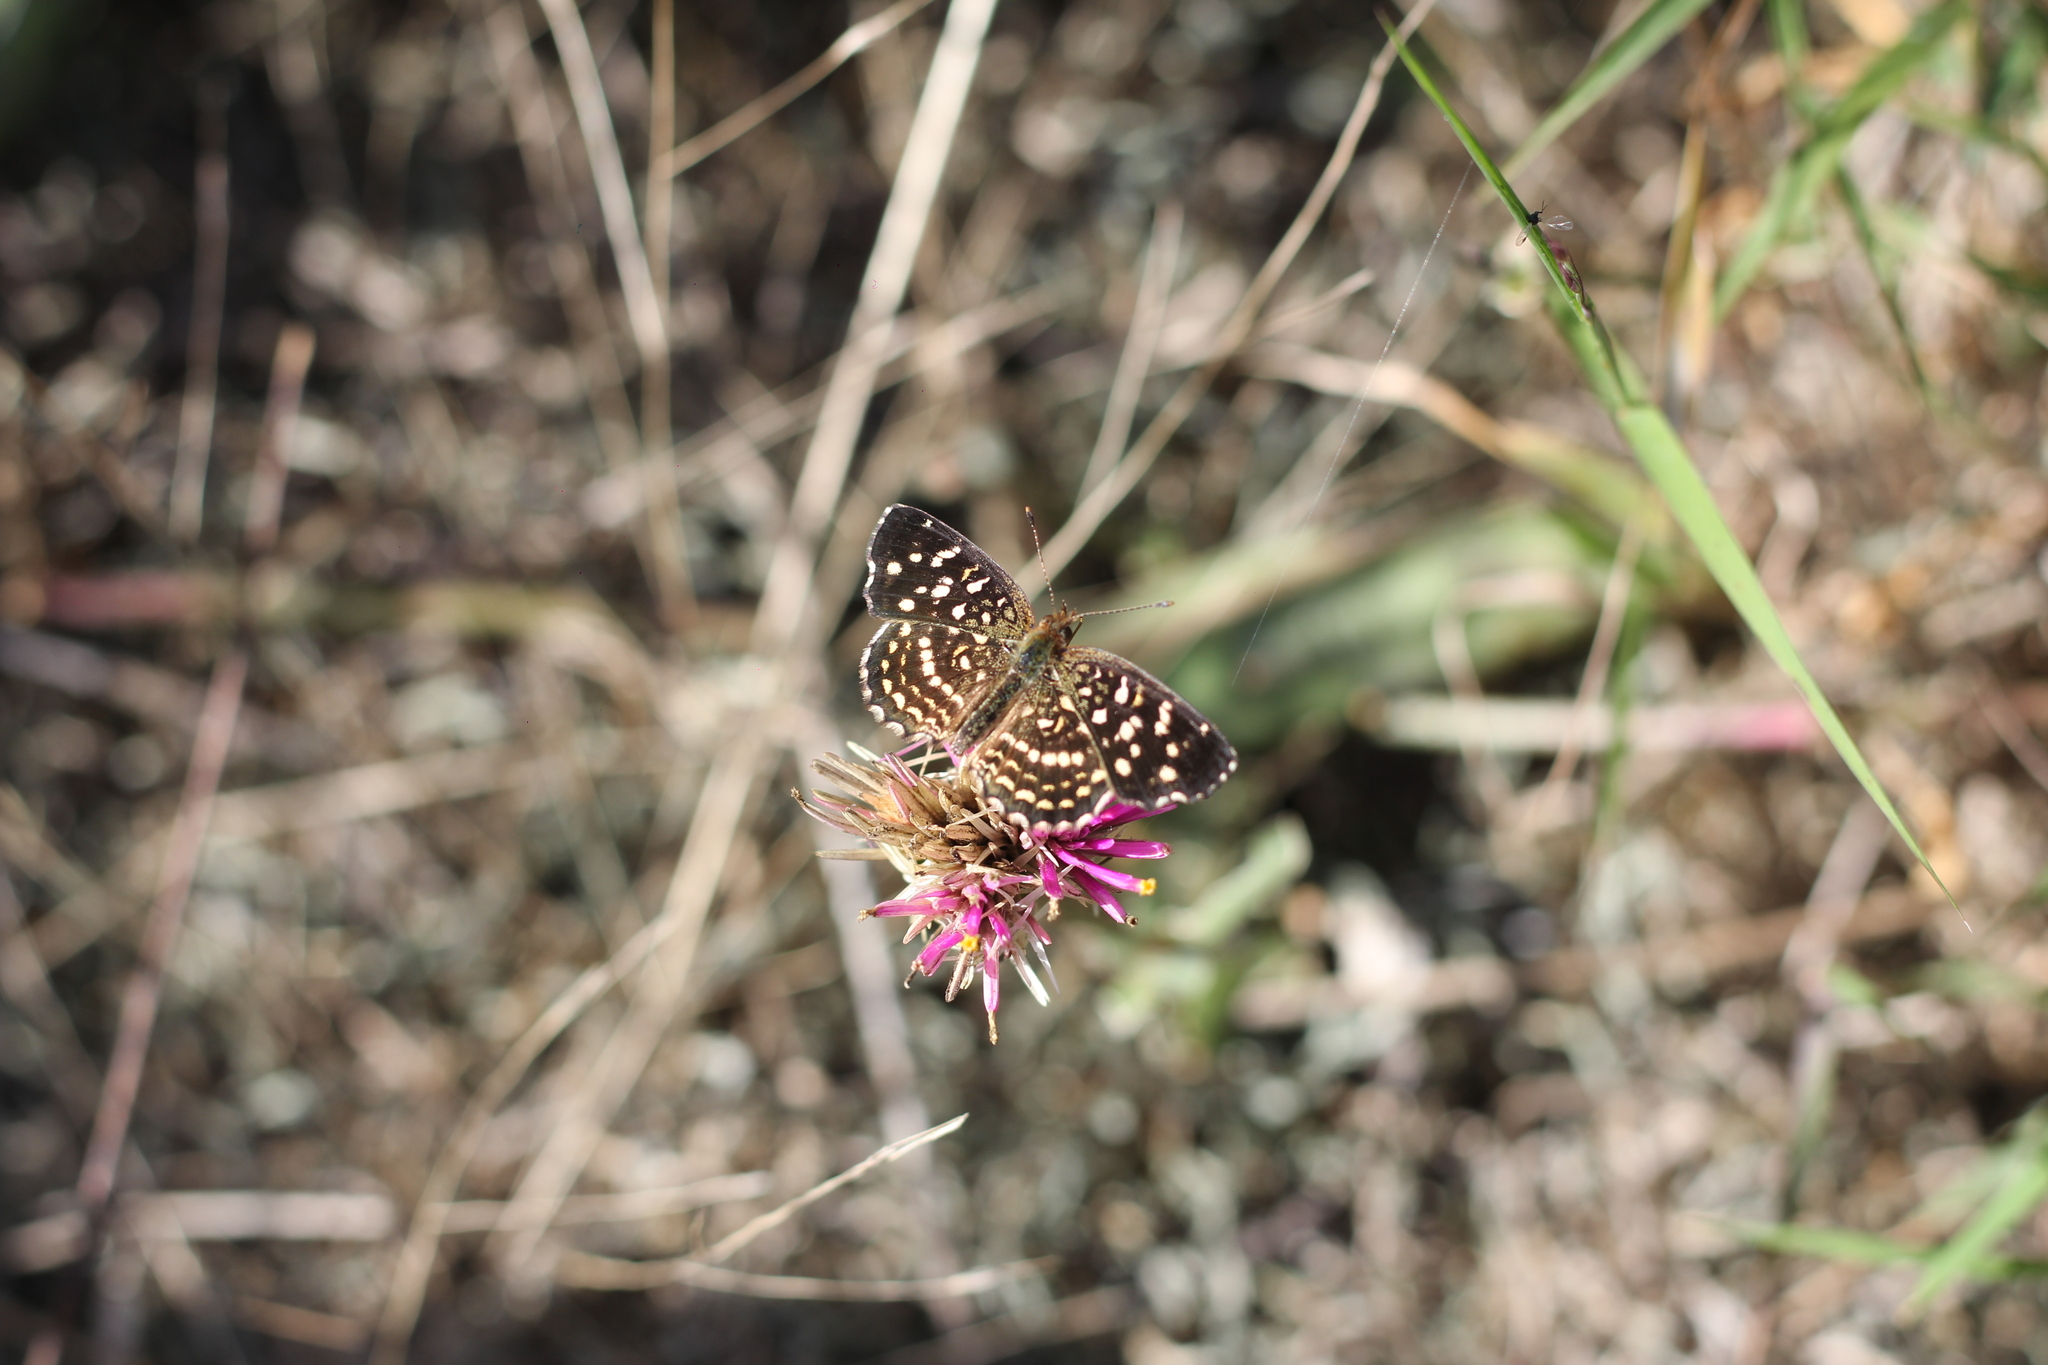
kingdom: Animalia
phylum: Arthropoda
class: Insecta
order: Lepidoptera
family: Nymphalidae
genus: Anthanassa
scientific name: Anthanassa hermas
